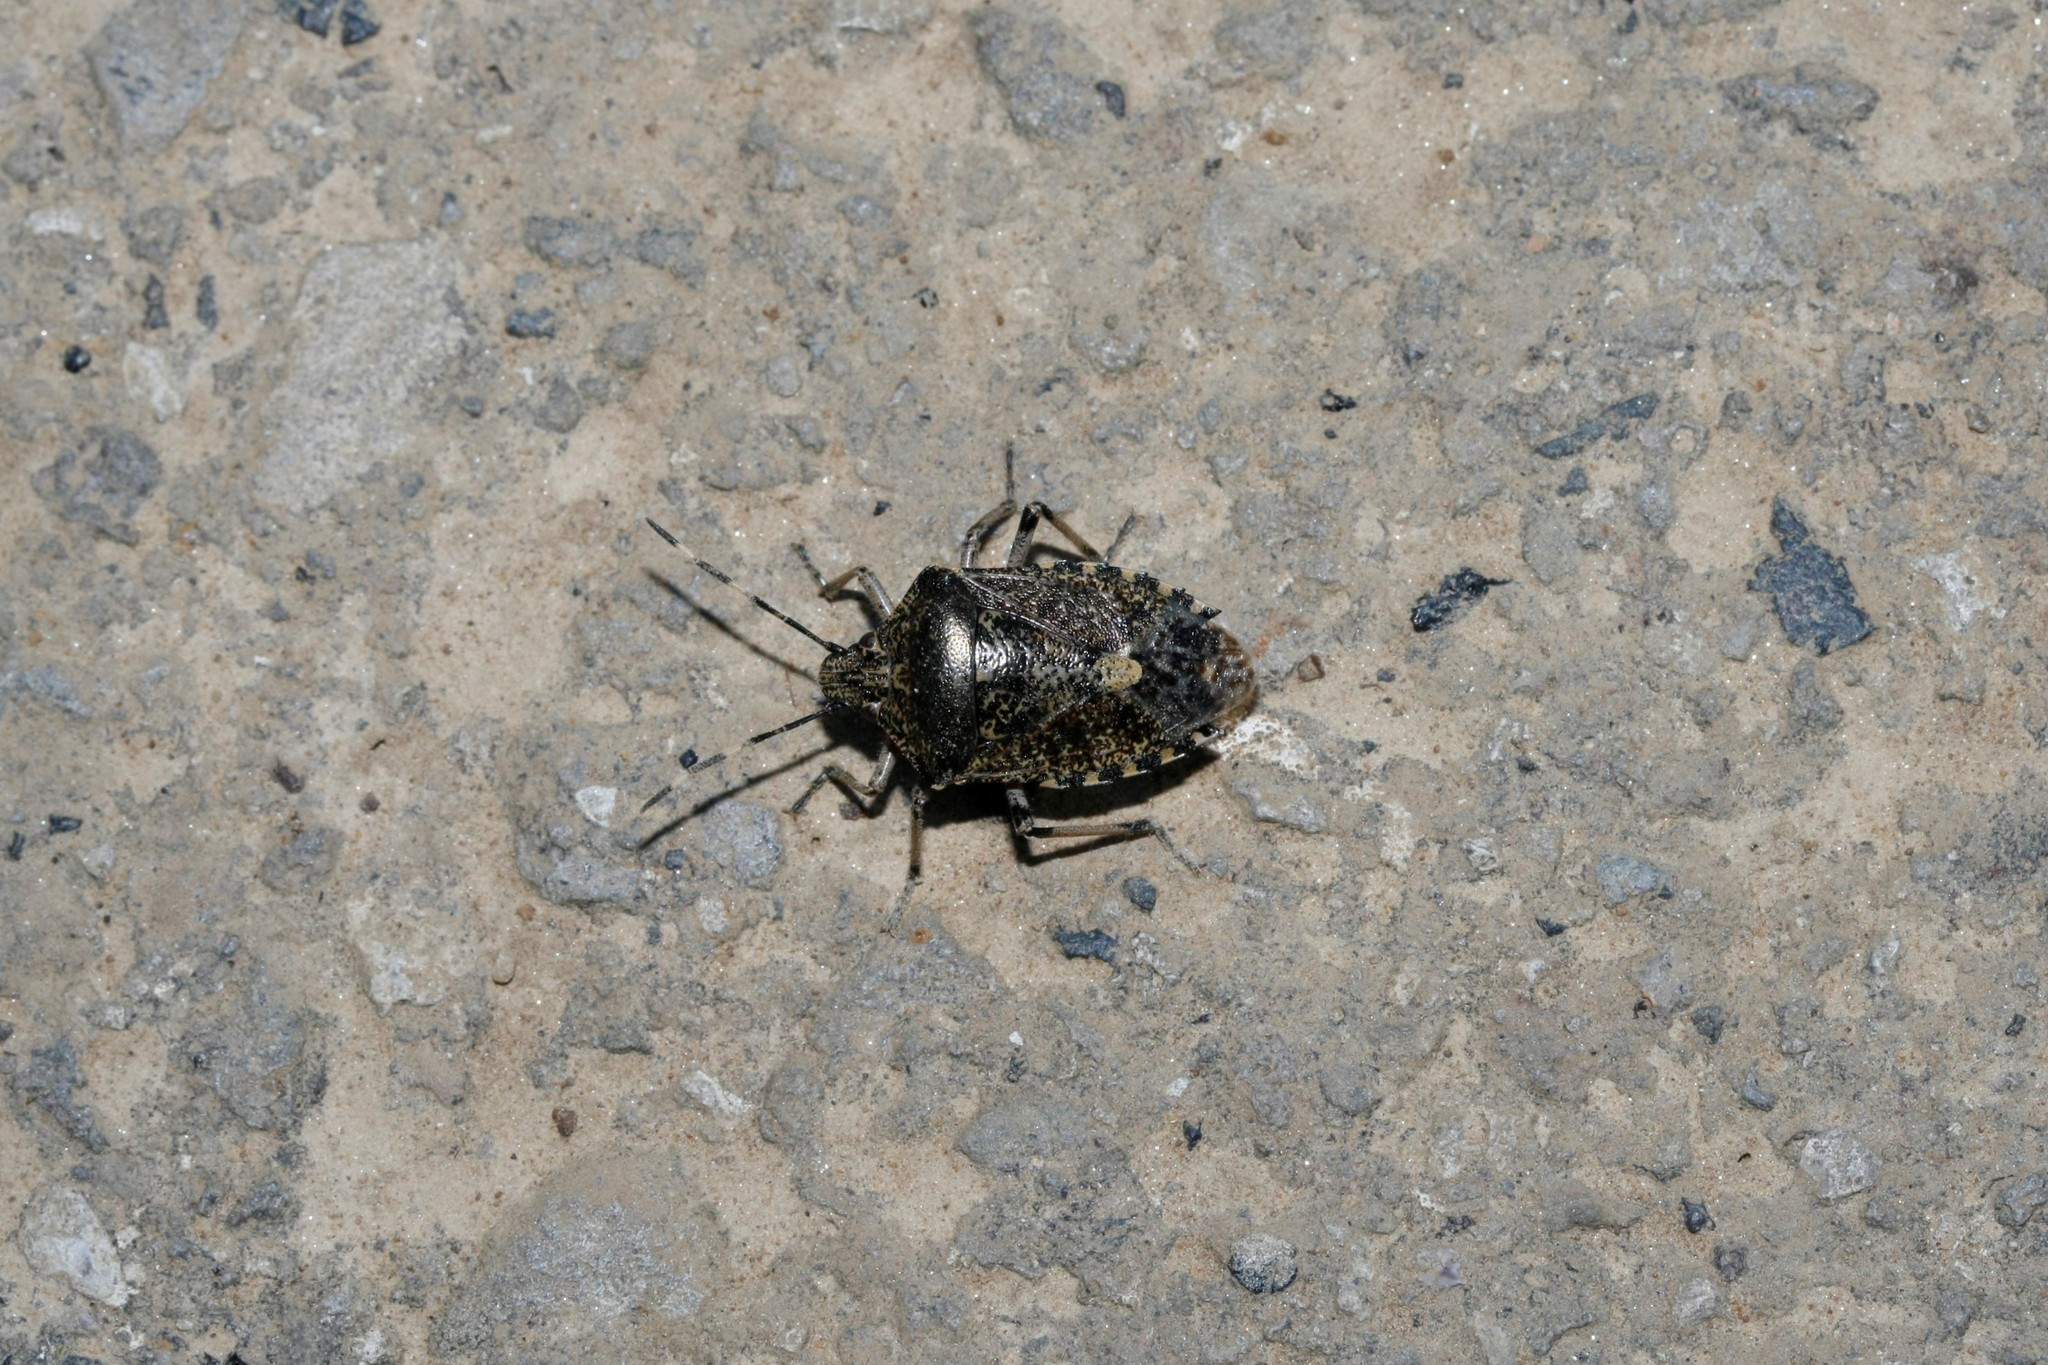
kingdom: Animalia
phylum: Arthropoda
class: Insecta
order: Hemiptera
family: Pentatomidae
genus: Rhaphigaster
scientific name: Rhaphigaster nebulosa
